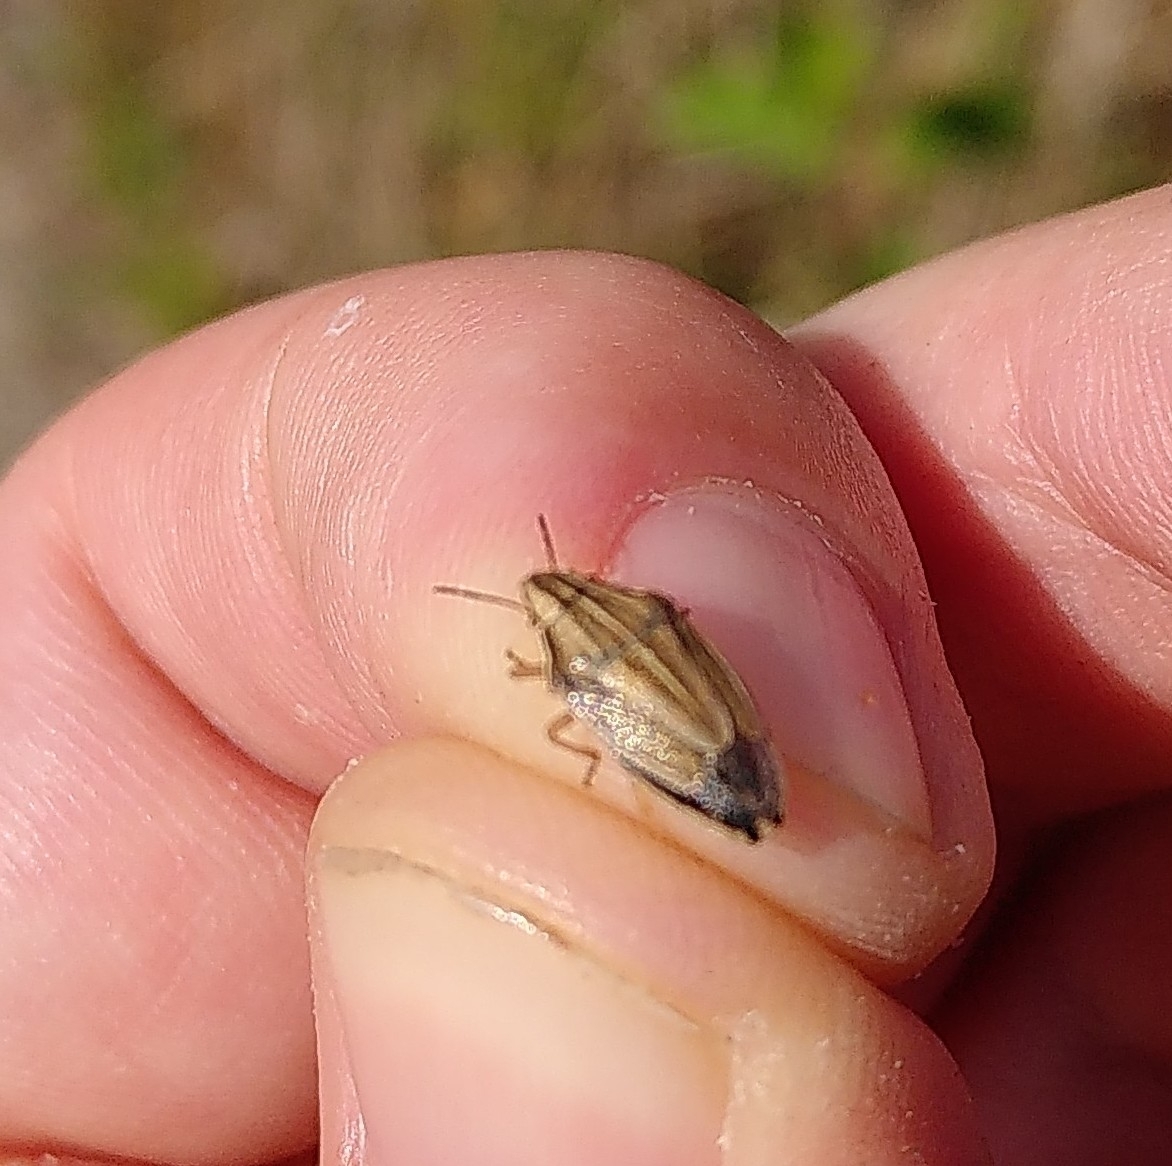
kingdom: Animalia
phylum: Arthropoda
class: Insecta
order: Hemiptera
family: Pentatomidae
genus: Aelia
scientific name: Aelia acuminata
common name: Bishop's mitre
